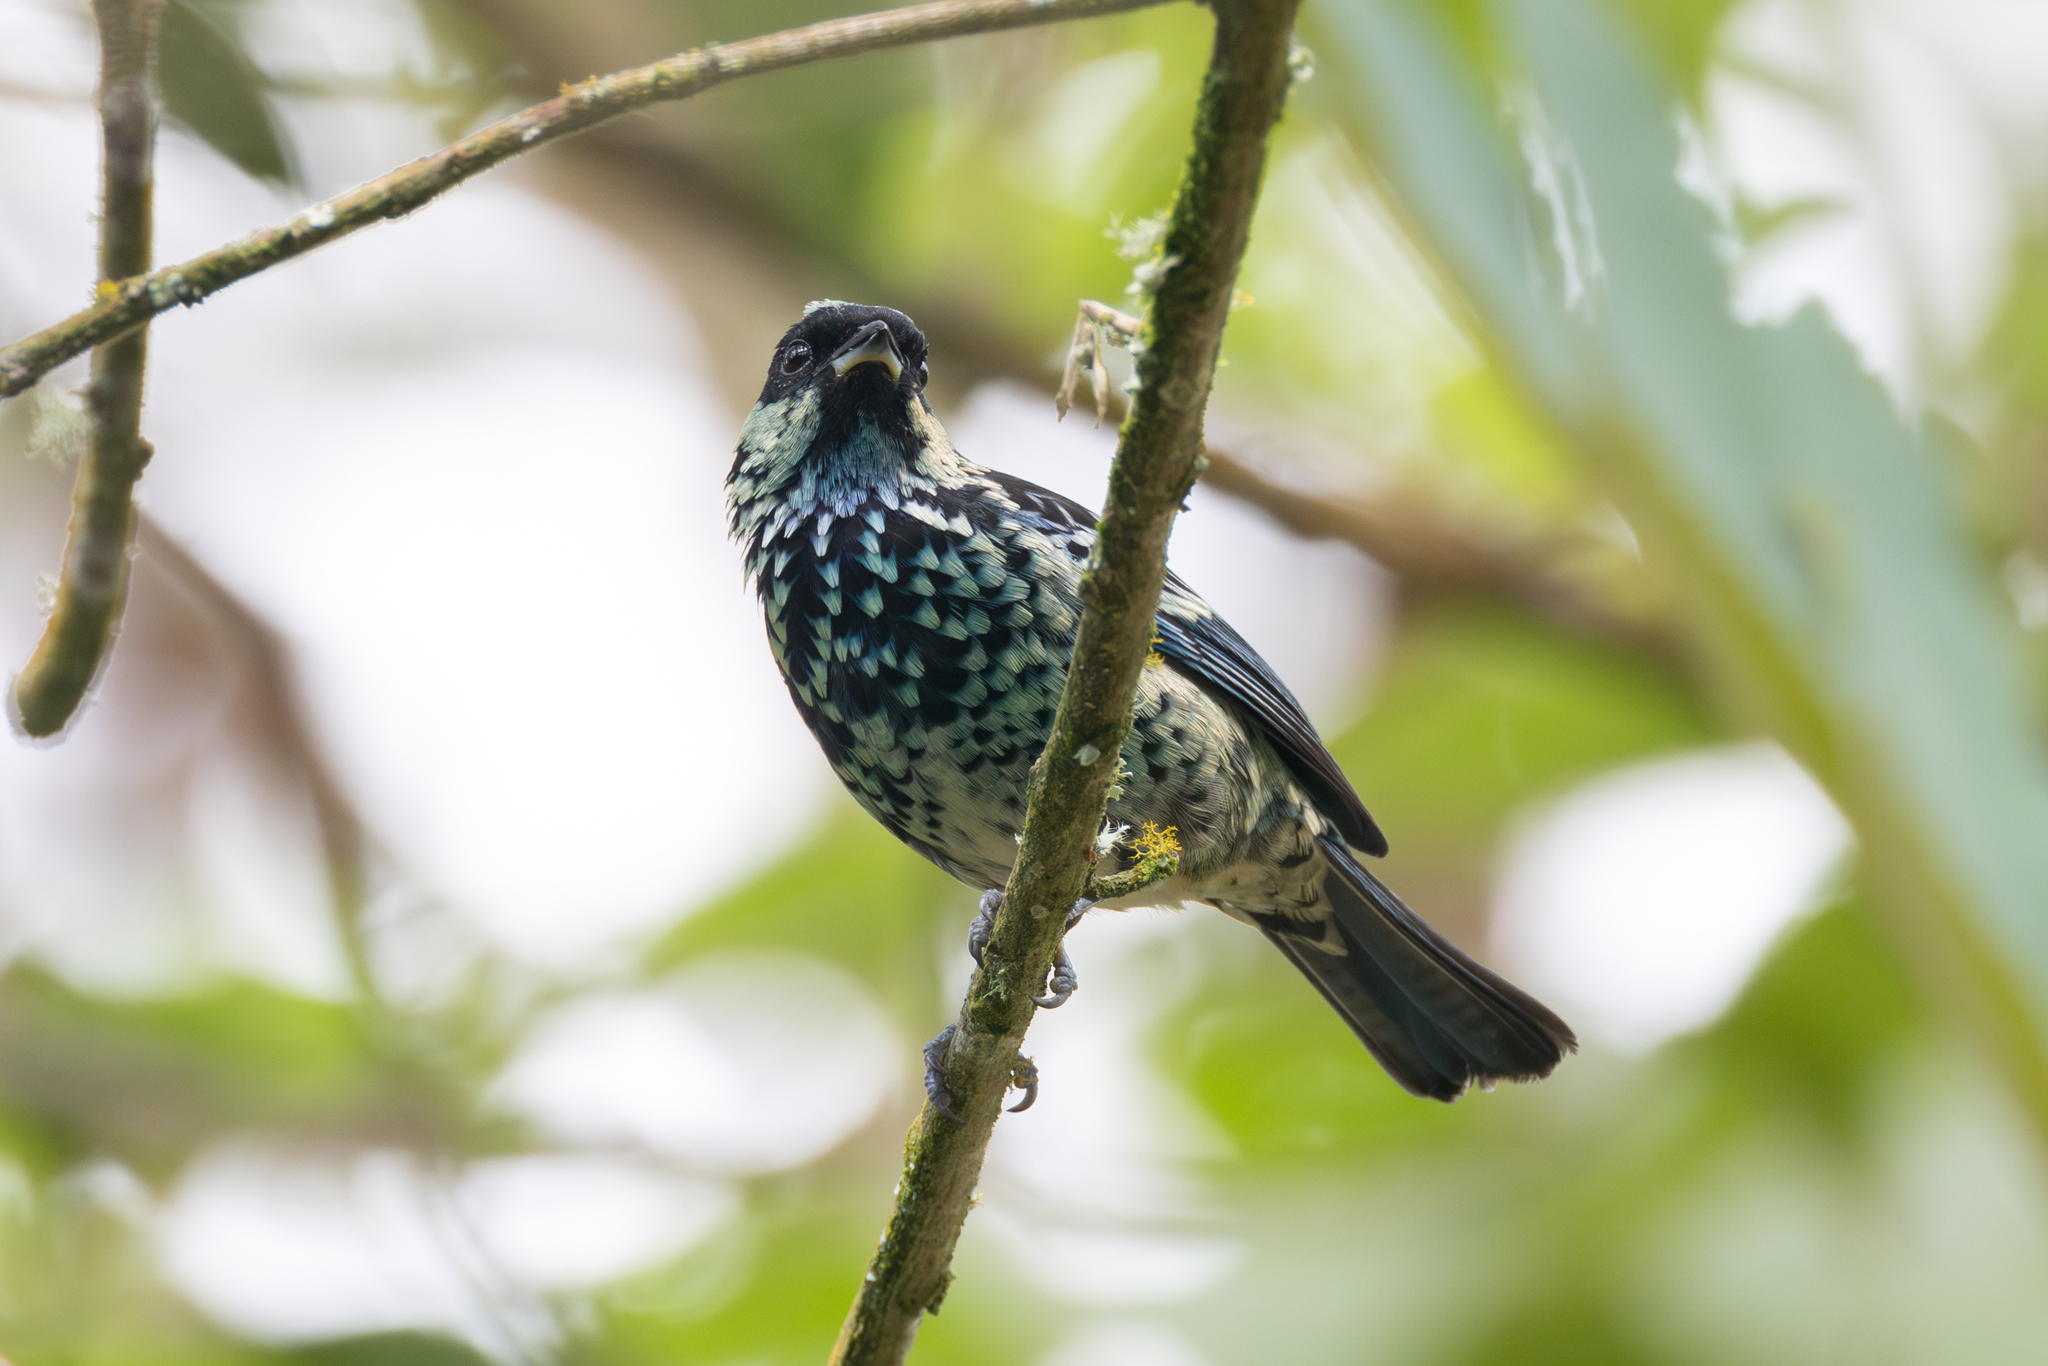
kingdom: Animalia
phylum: Chordata
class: Aves
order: Passeriformes
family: Thraupidae
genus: Tangara
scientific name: Tangara nigroviridis
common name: Beryl-spangled tanager
